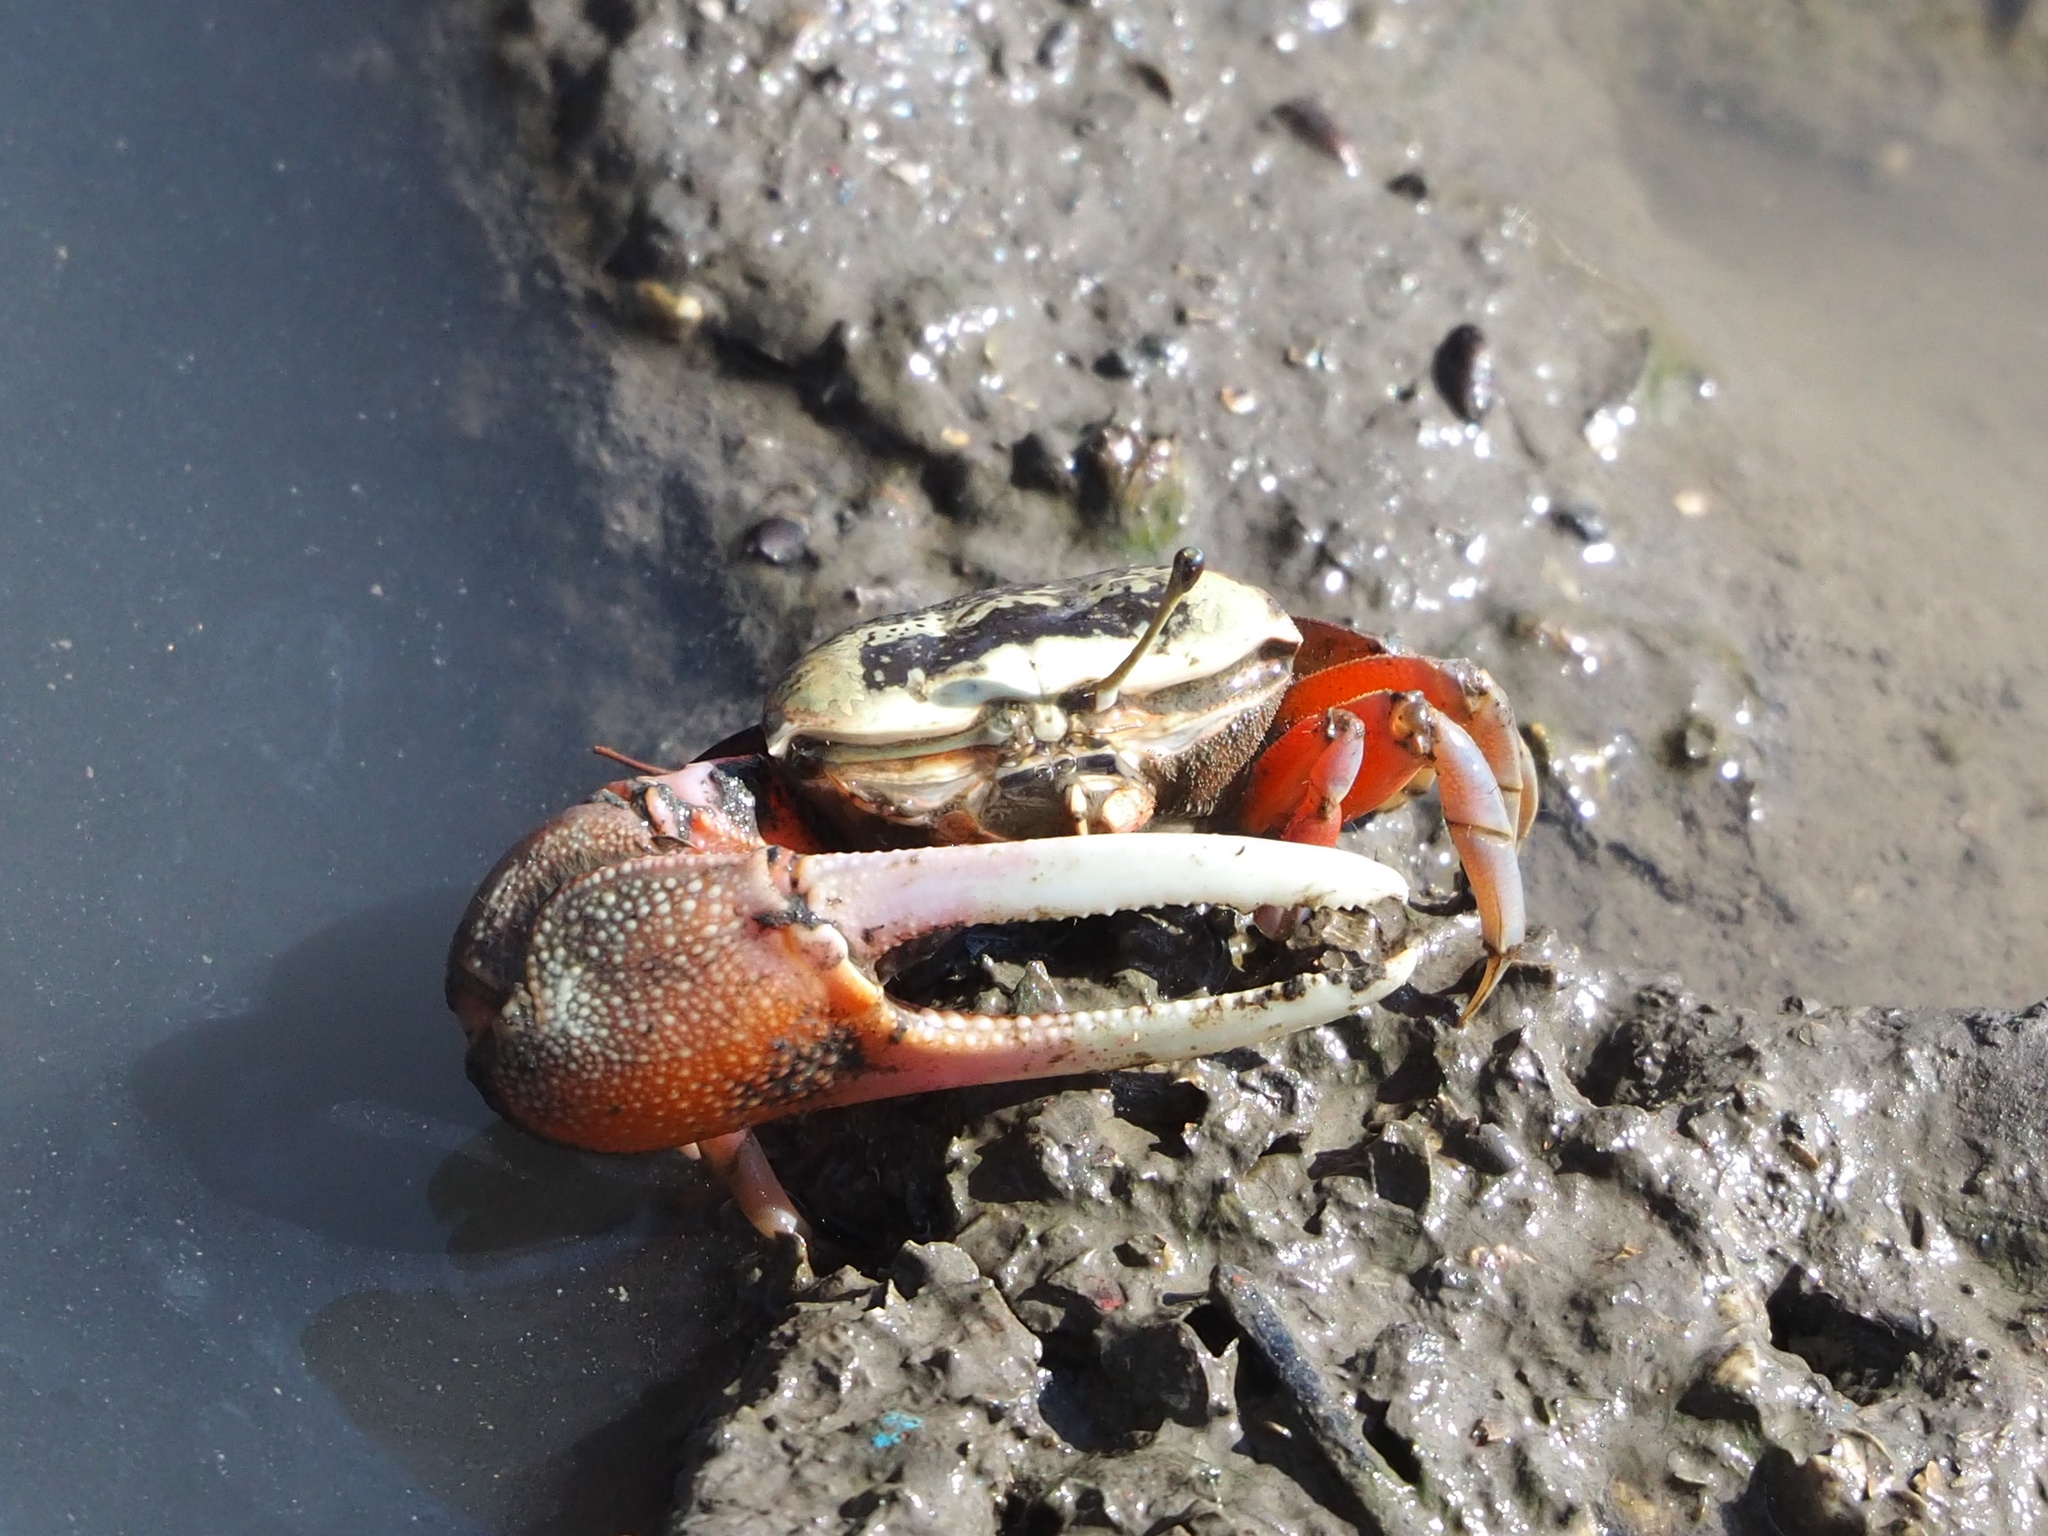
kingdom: Animalia
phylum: Arthropoda
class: Malacostraca
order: Decapoda
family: Ocypodidae
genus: Tubuca
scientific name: Tubuca arcuata
